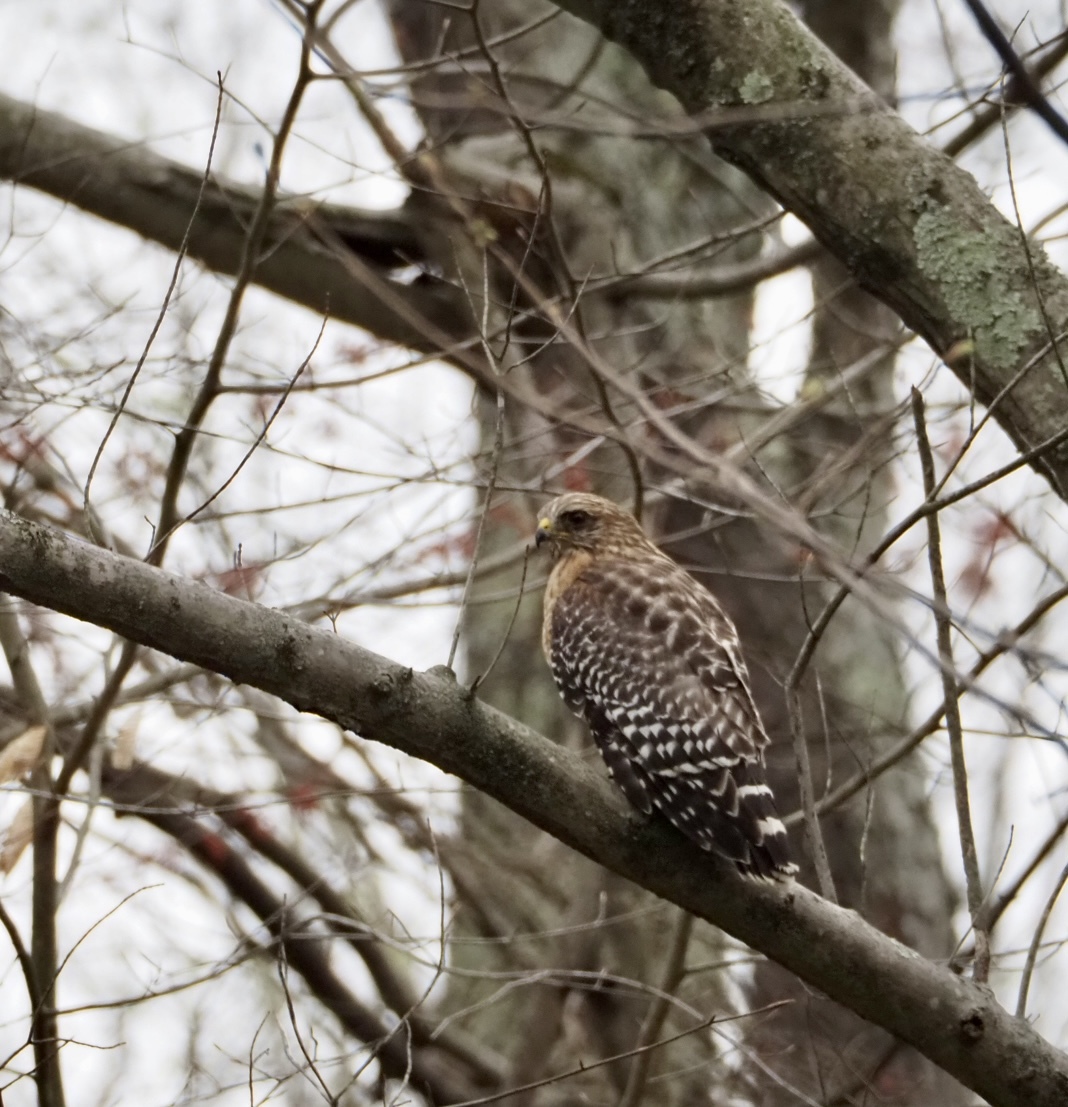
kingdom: Animalia
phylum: Chordata
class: Aves
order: Accipitriformes
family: Accipitridae
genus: Buteo
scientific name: Buteo lineatus
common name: Red-shouldered hawk
